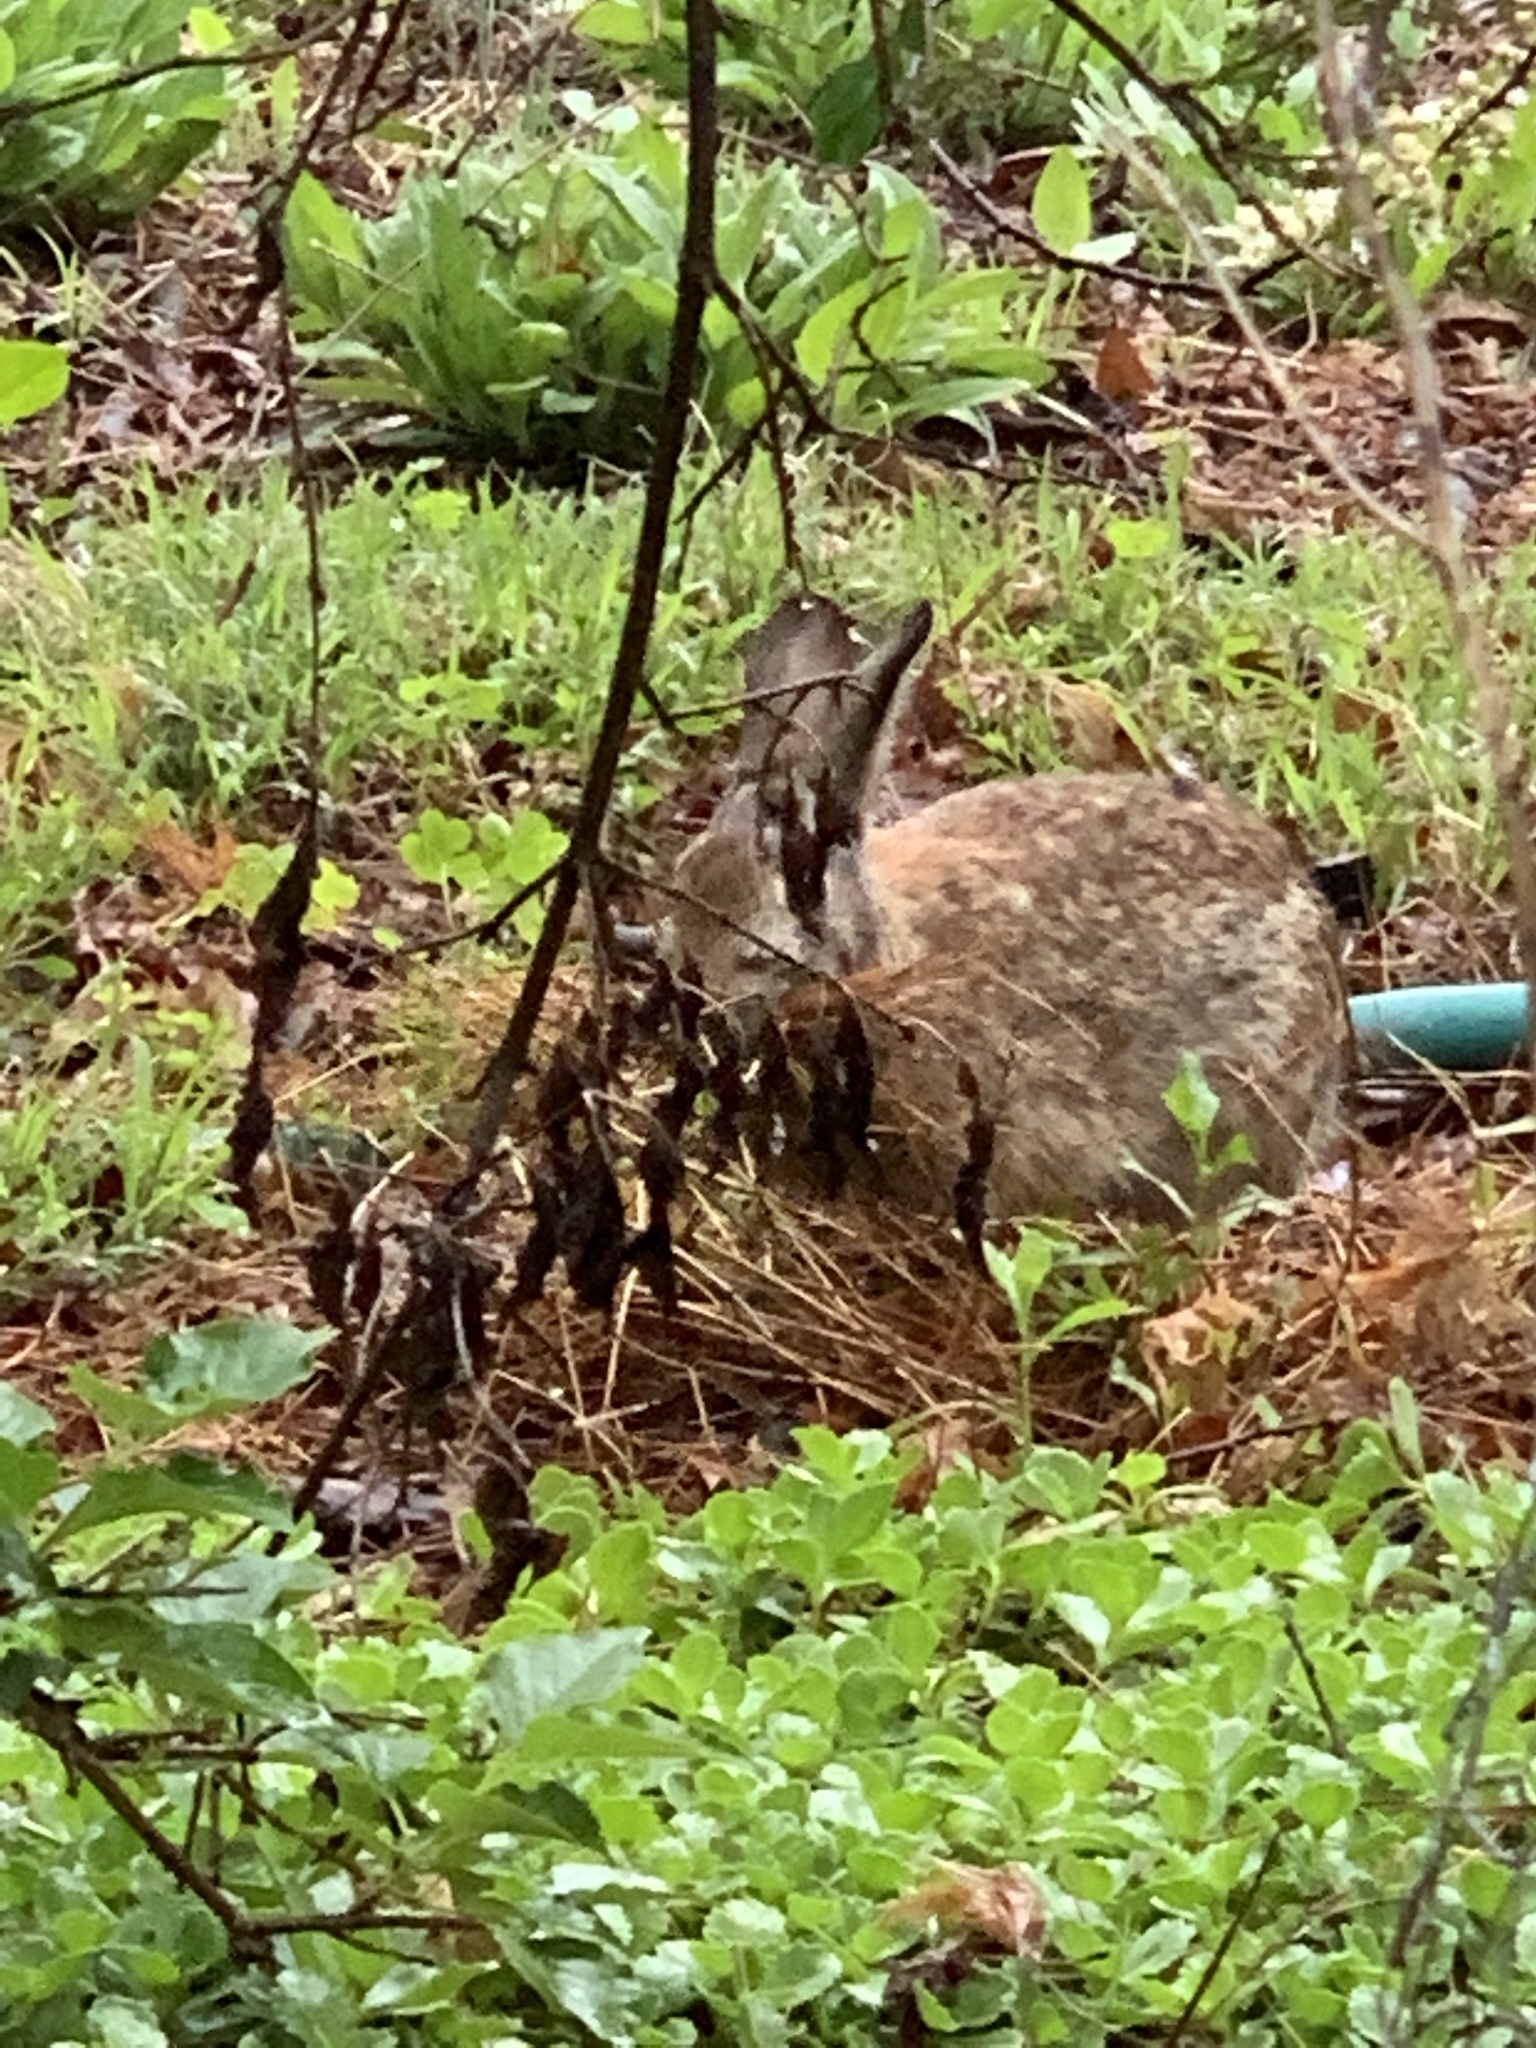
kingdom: Animalia
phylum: Chordata
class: Mammalia
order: Lagomorpha
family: Leporidae
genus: Sylvilagus
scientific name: Sylvilagus floridanus
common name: Eastern cottontail
